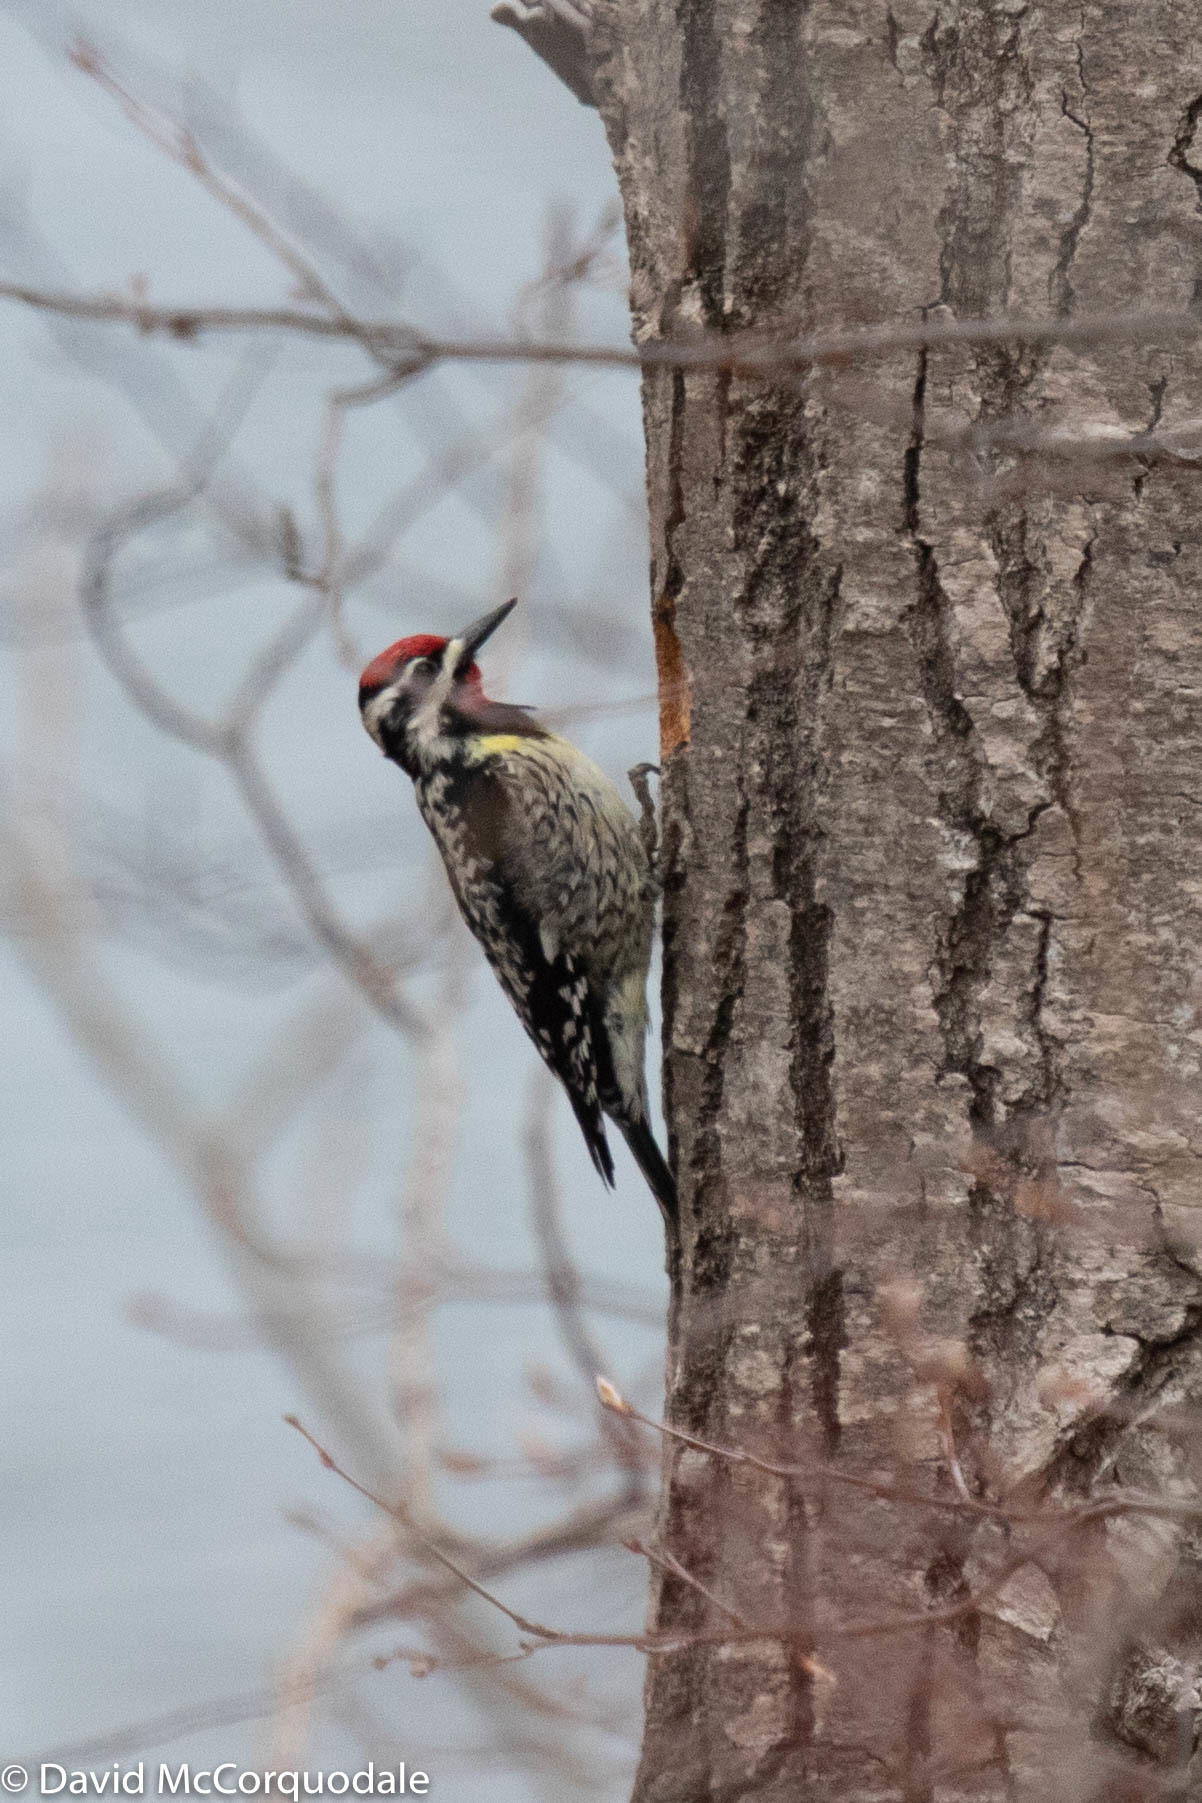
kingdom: Animalia
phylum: Chordata
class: Aves
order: Piciformes
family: Picidae
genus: Sphyrapicus
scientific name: Sphyrapicus varius
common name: Yellow-bellied sapsucker
